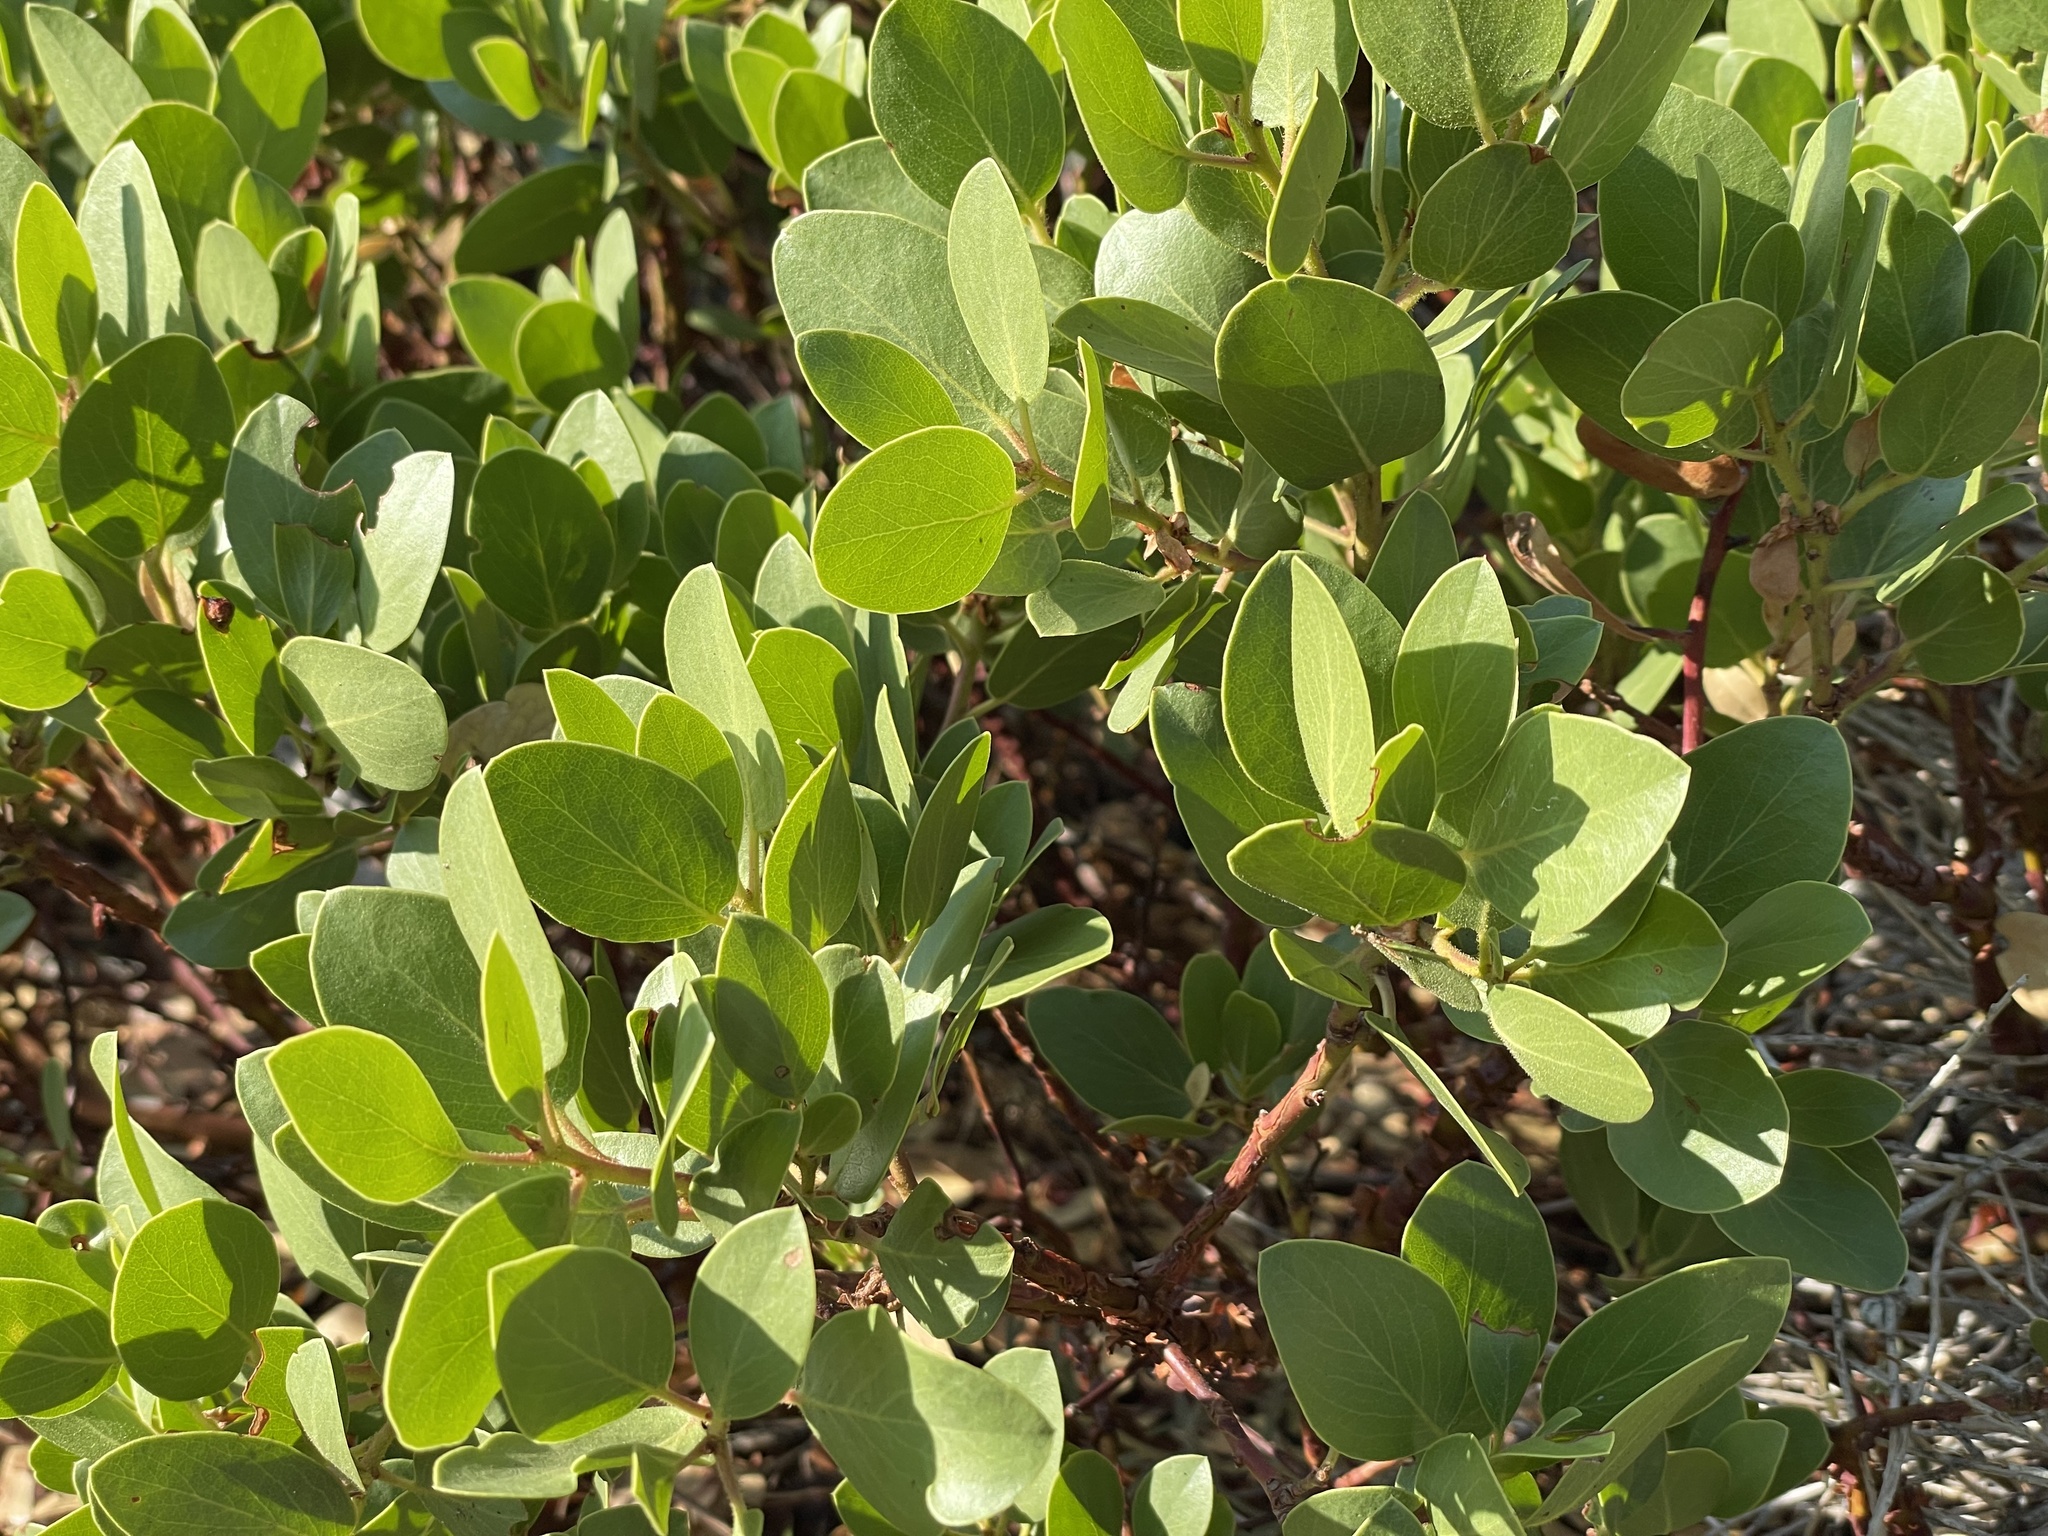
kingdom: Plantae
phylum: Tracheophyta
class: Magnoliopsida
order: Ericales
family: Ericaceae
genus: Arctostaphylos
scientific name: Arctostaphylos patula
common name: Green-leaf manzanita
